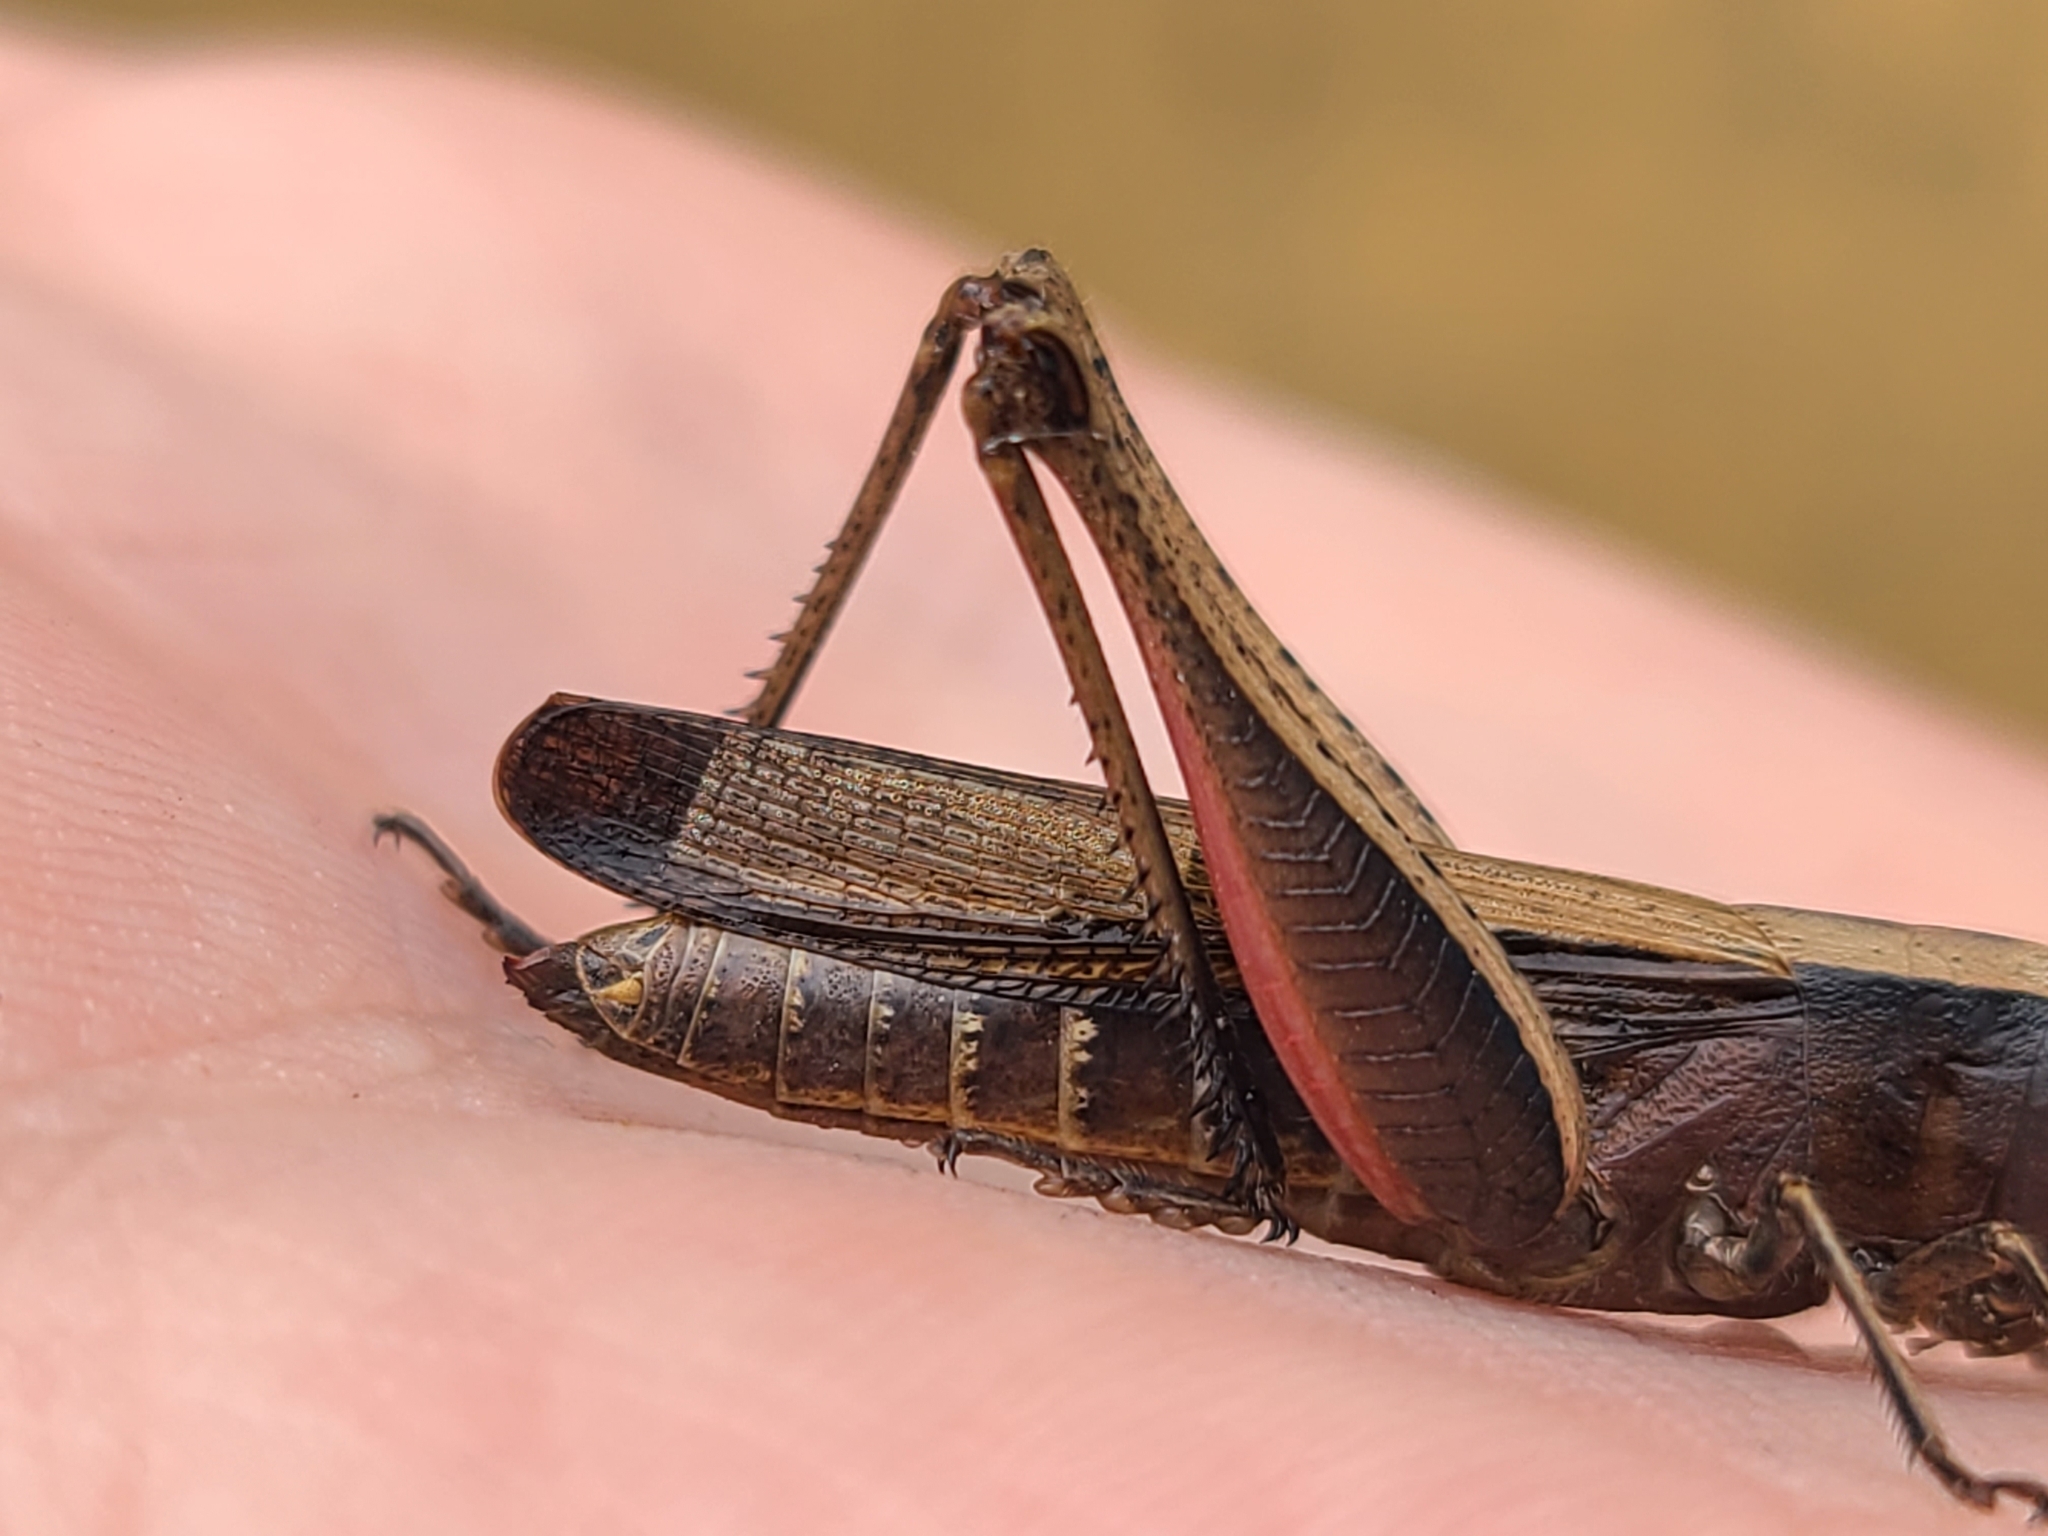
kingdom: Animalia
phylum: Arthropoda
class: Insecta
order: Orthoptera
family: Acrididae
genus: Amblytropidia
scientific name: Amblytropidia mysteca
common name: Brown winter grasshopper
